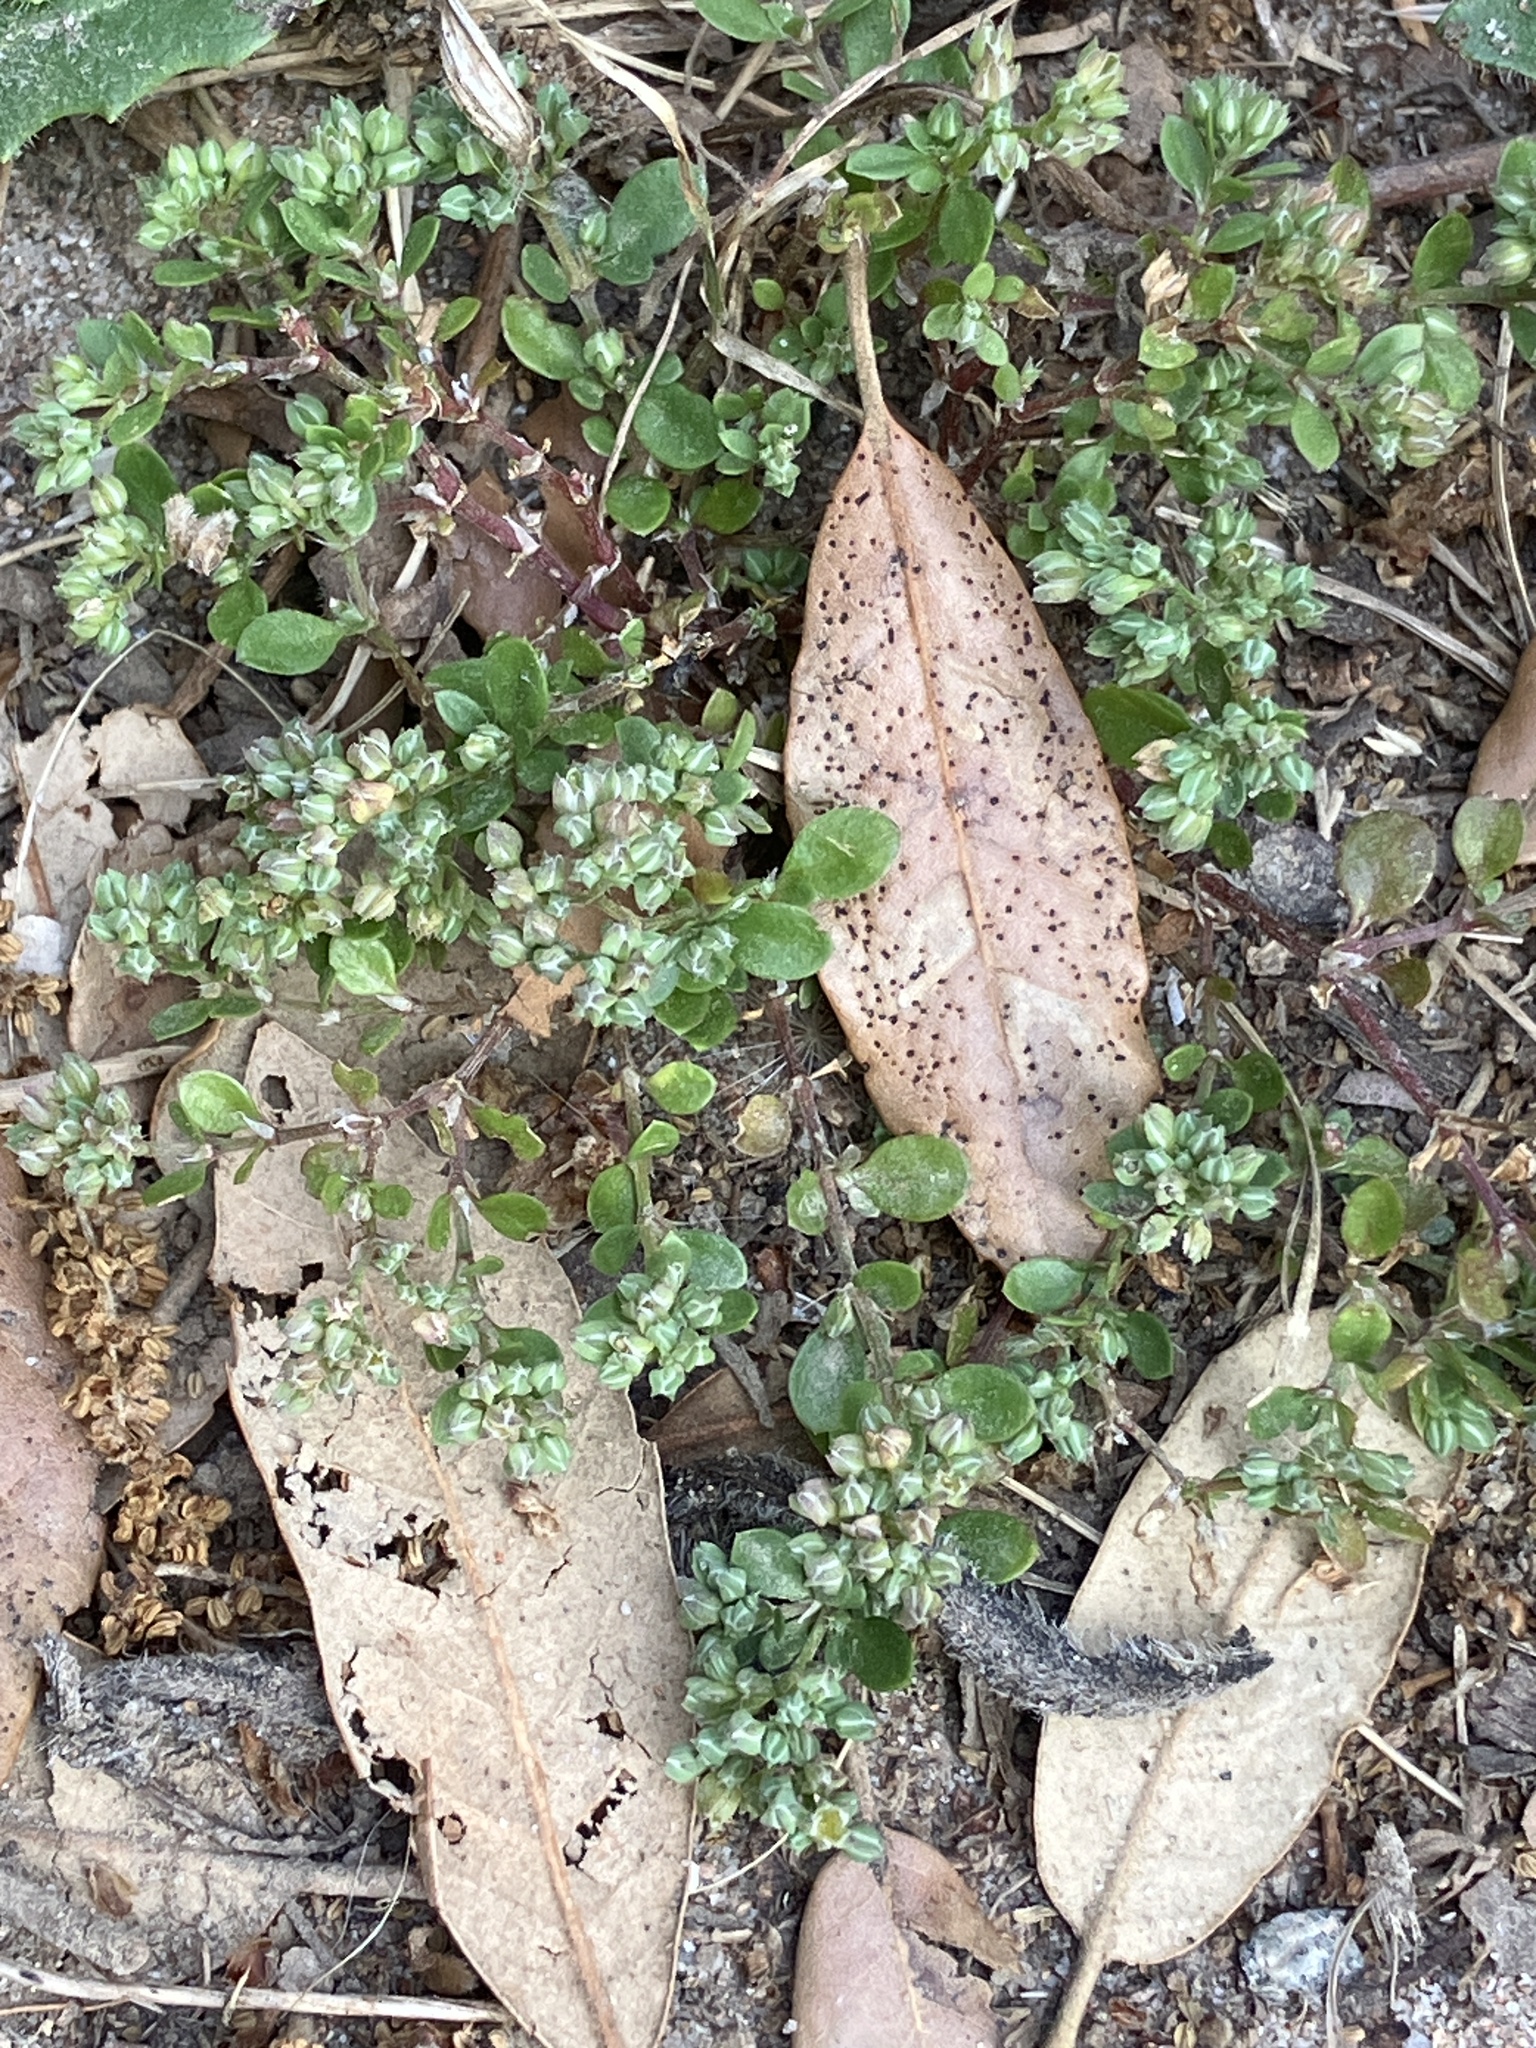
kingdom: Plantae
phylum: Tracheophyta
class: Magnoliopsida
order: Caryophyllales
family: Caryophyllaceae
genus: Polycarpon
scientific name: Polycarpon tetraphyllum
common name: Four-leaved all-seed
